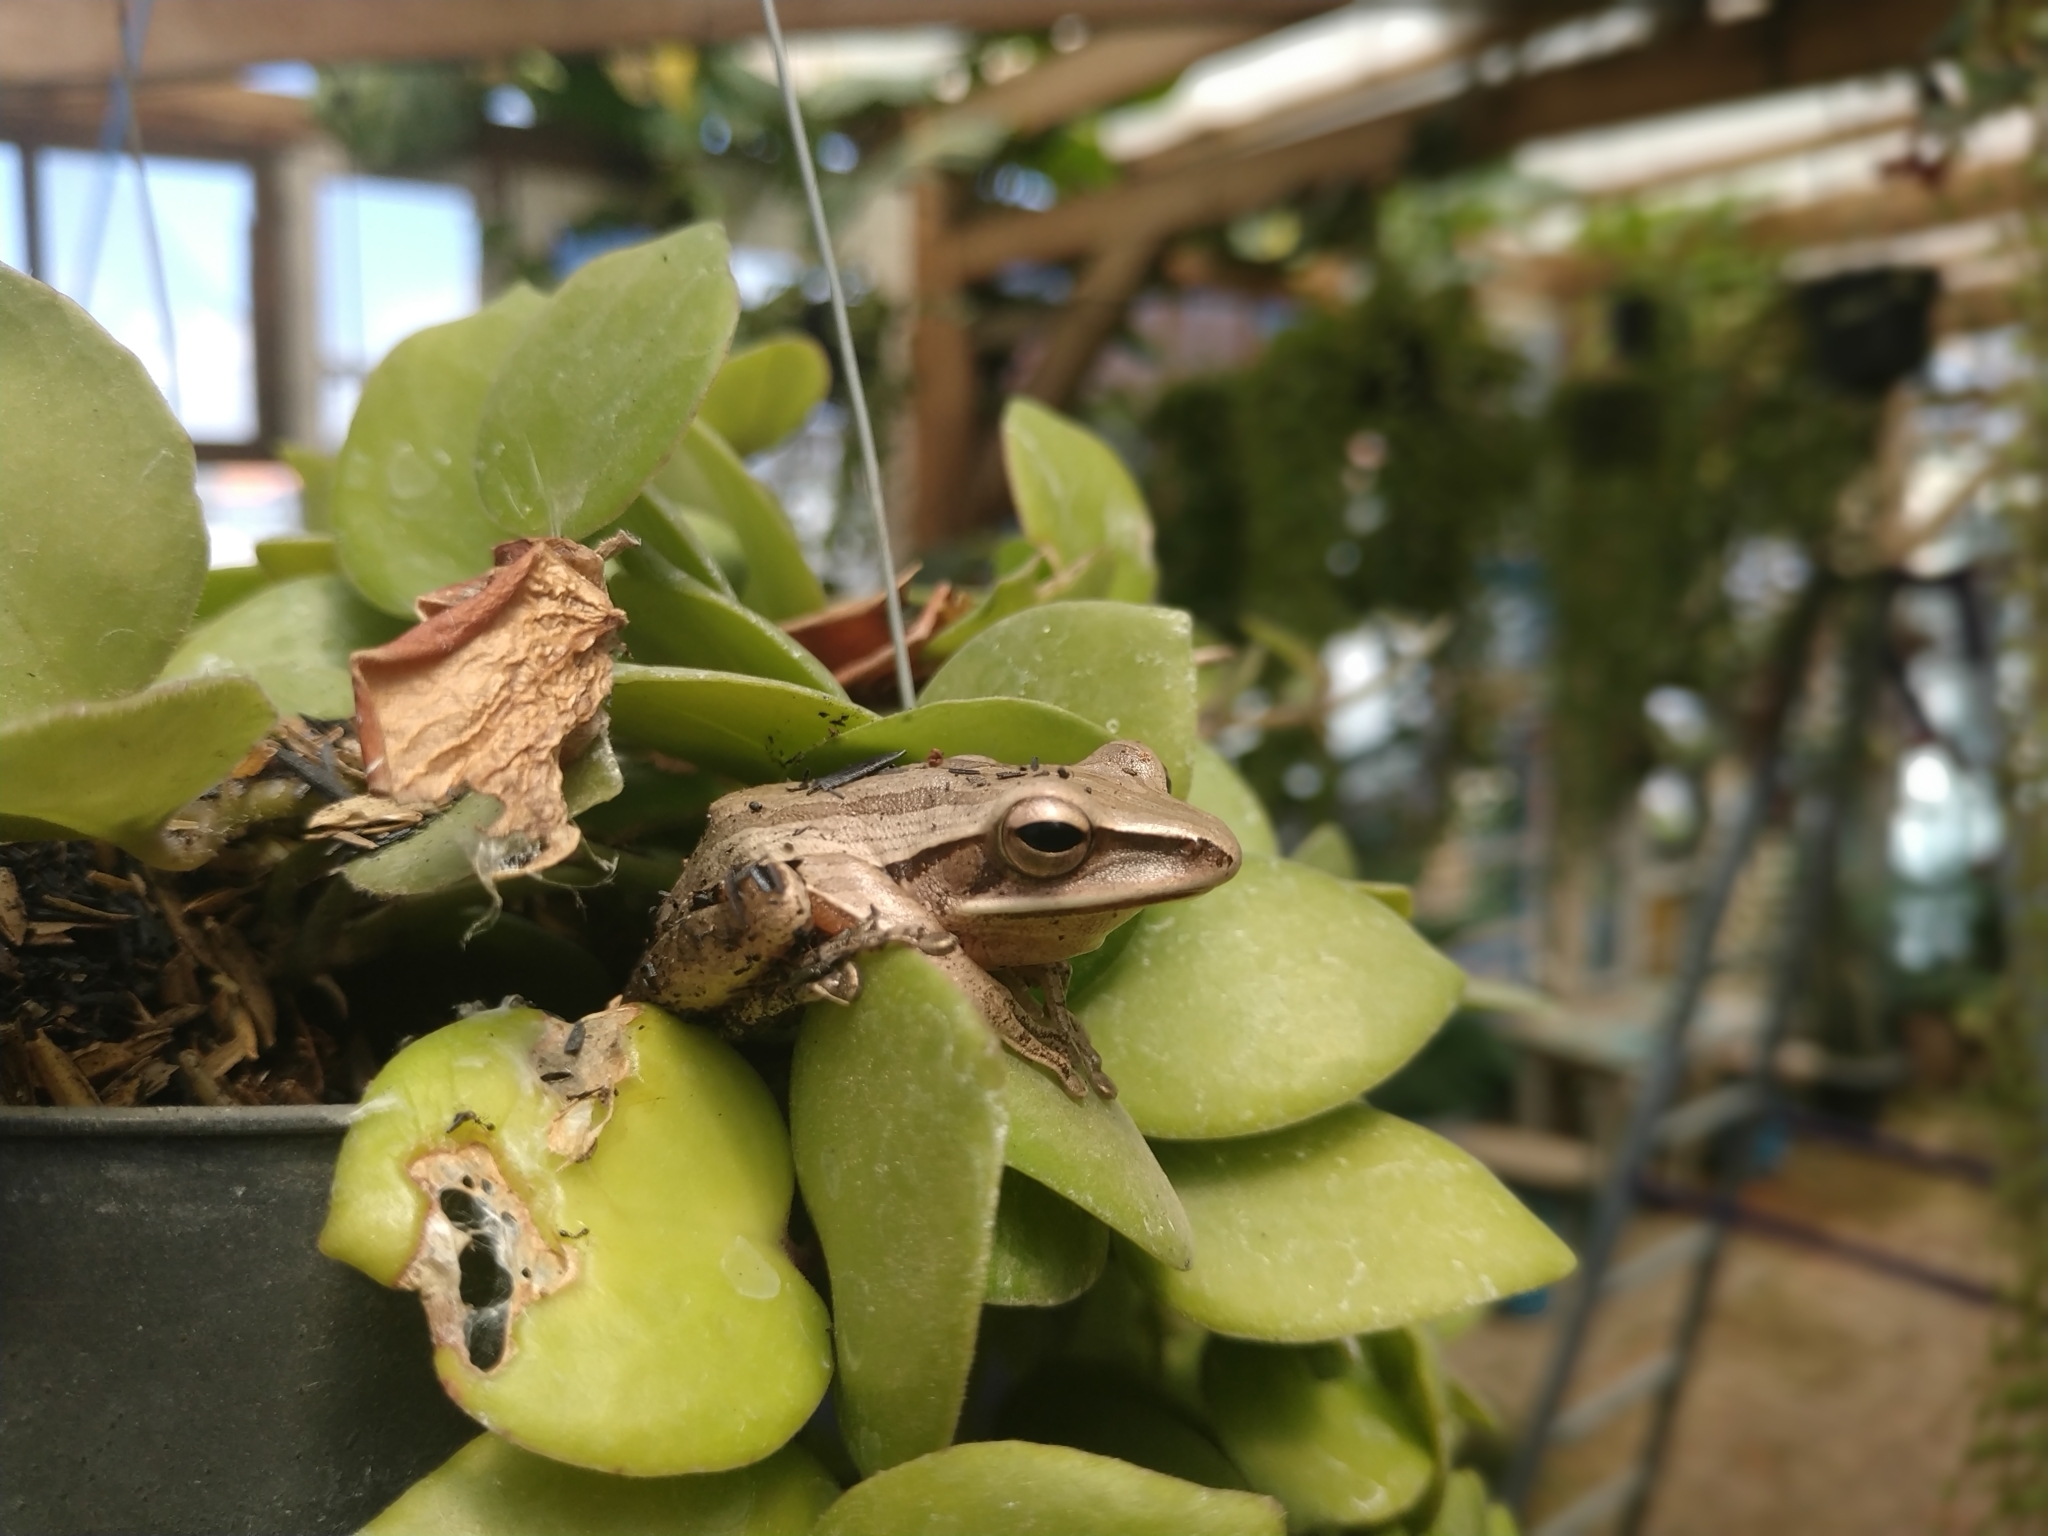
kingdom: Animalia
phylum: Chordata
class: Amphibia
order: Anura
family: Rhacophoridae
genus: Polypedates
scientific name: Polypedates leucomystax
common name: Common tree frog/four-lined tree frog
